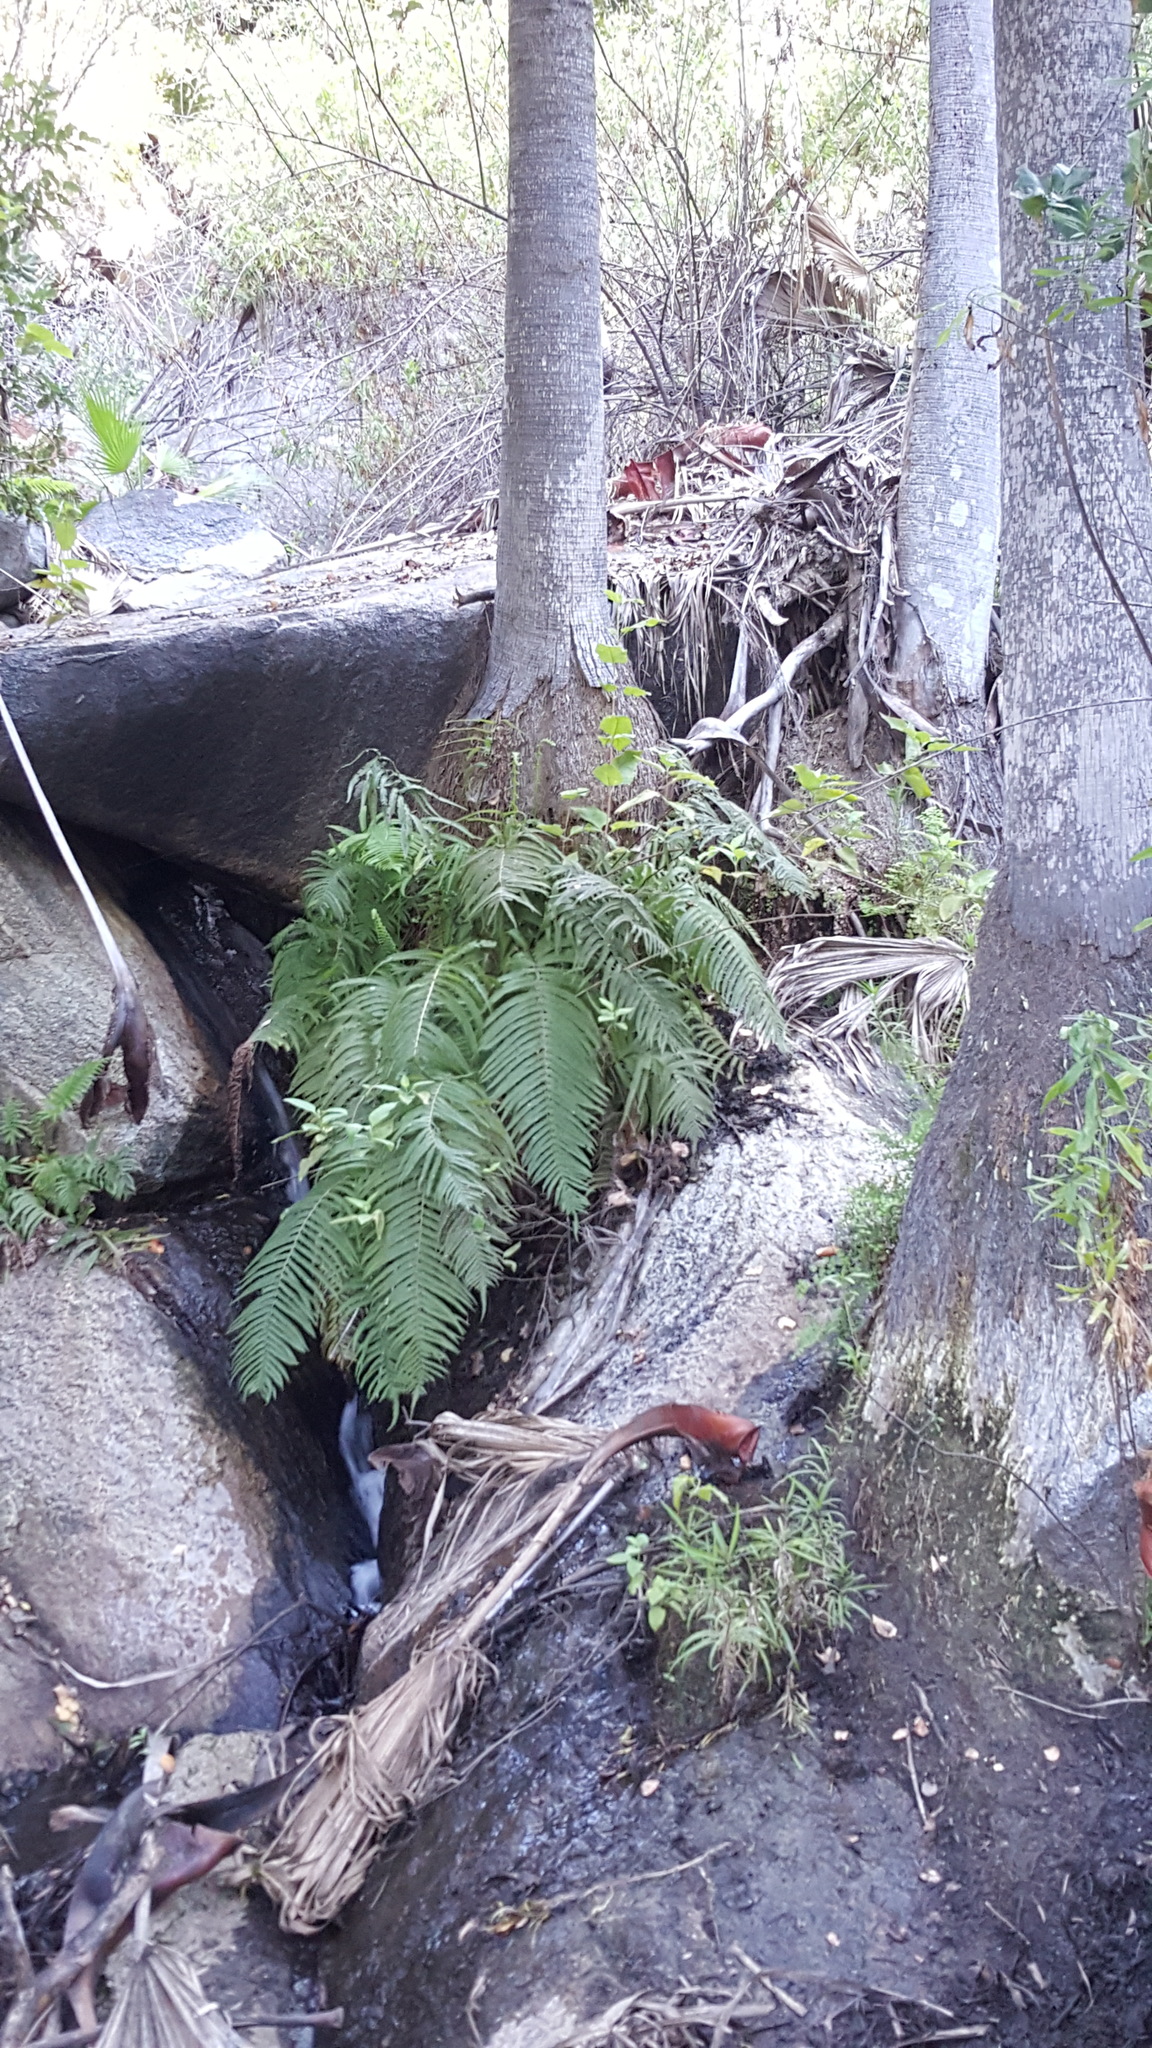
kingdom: Plantae
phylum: Tracheophyta
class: Polypodiopsida
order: Polypodiales
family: Thelypteridaceae
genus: Pelazoneuron
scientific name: Pelazoneuron puberulum
